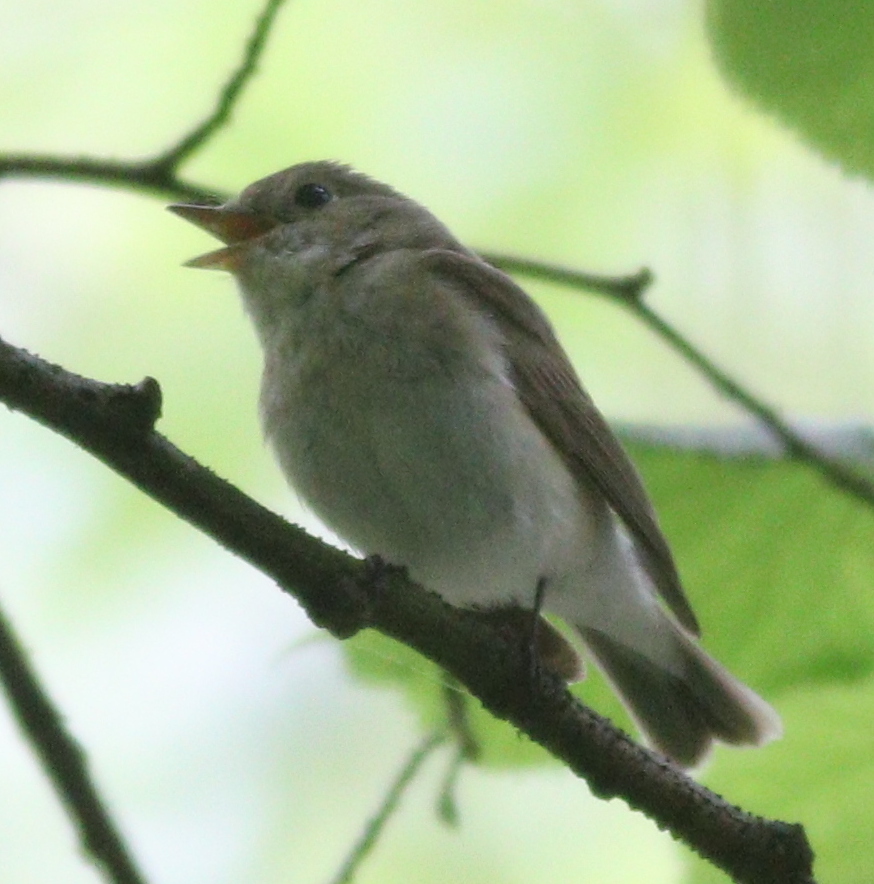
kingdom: Animalia
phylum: Chordata
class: Aves
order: Passeriformes
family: Muscicapidae
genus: Ficedula
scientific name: Ficedula parva
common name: Red-breasted flycatcher
